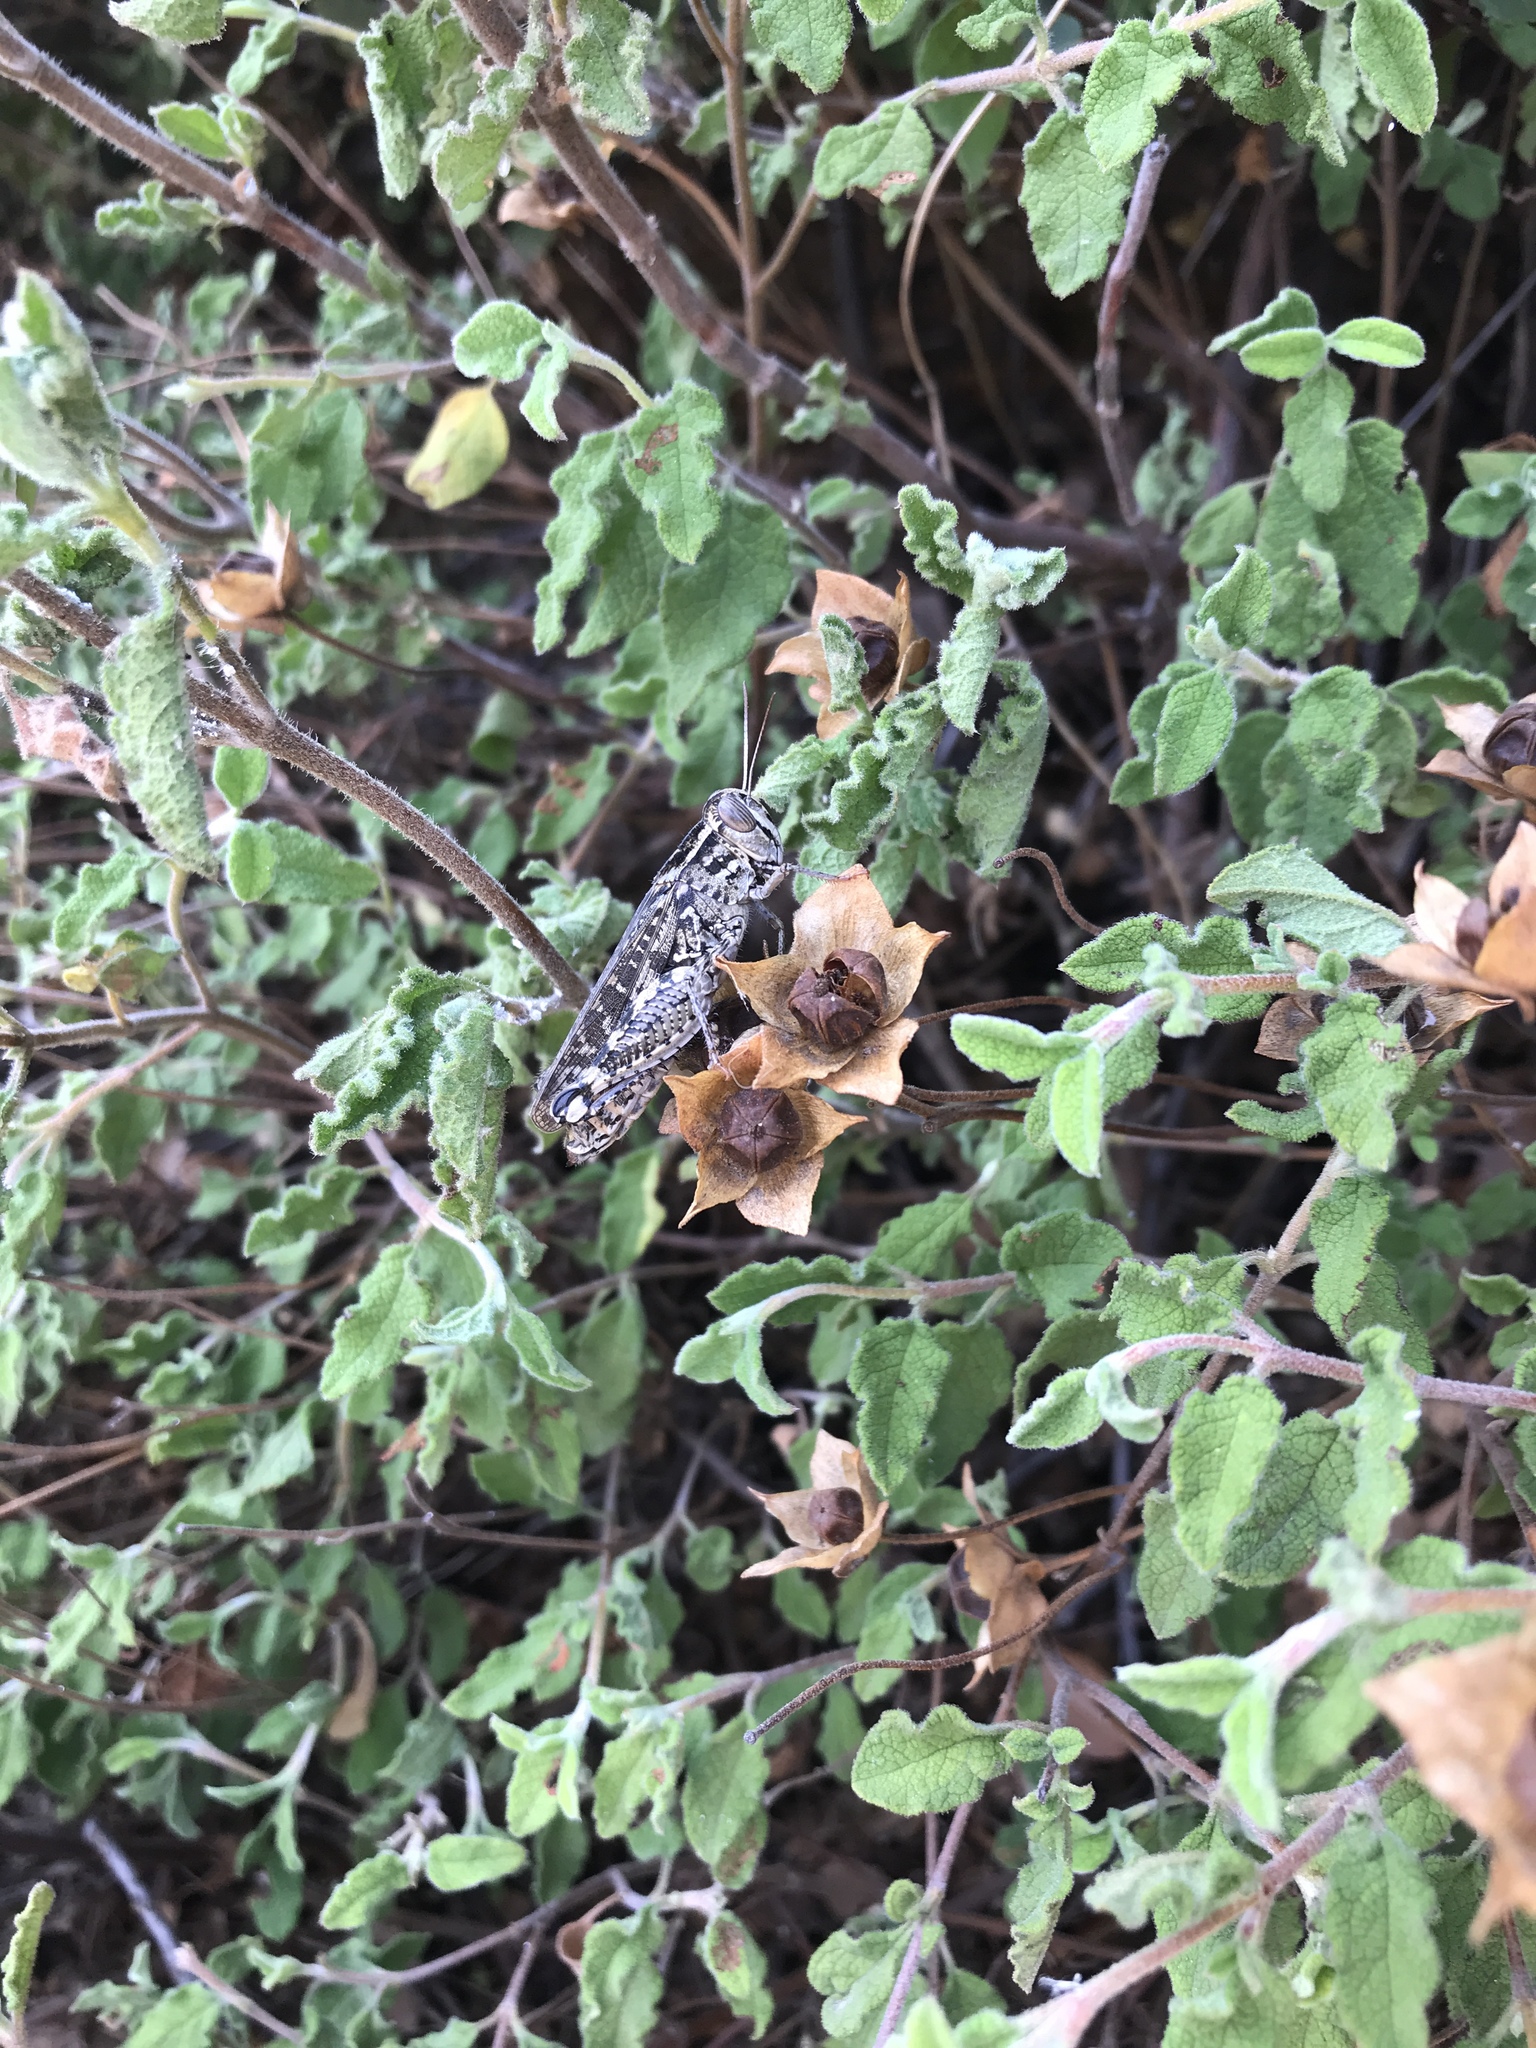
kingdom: Animalia
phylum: Arthropoda
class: Insecta
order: Orthoptera
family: Acrididae
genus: Calliptamus
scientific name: Calliptamus barbarus
